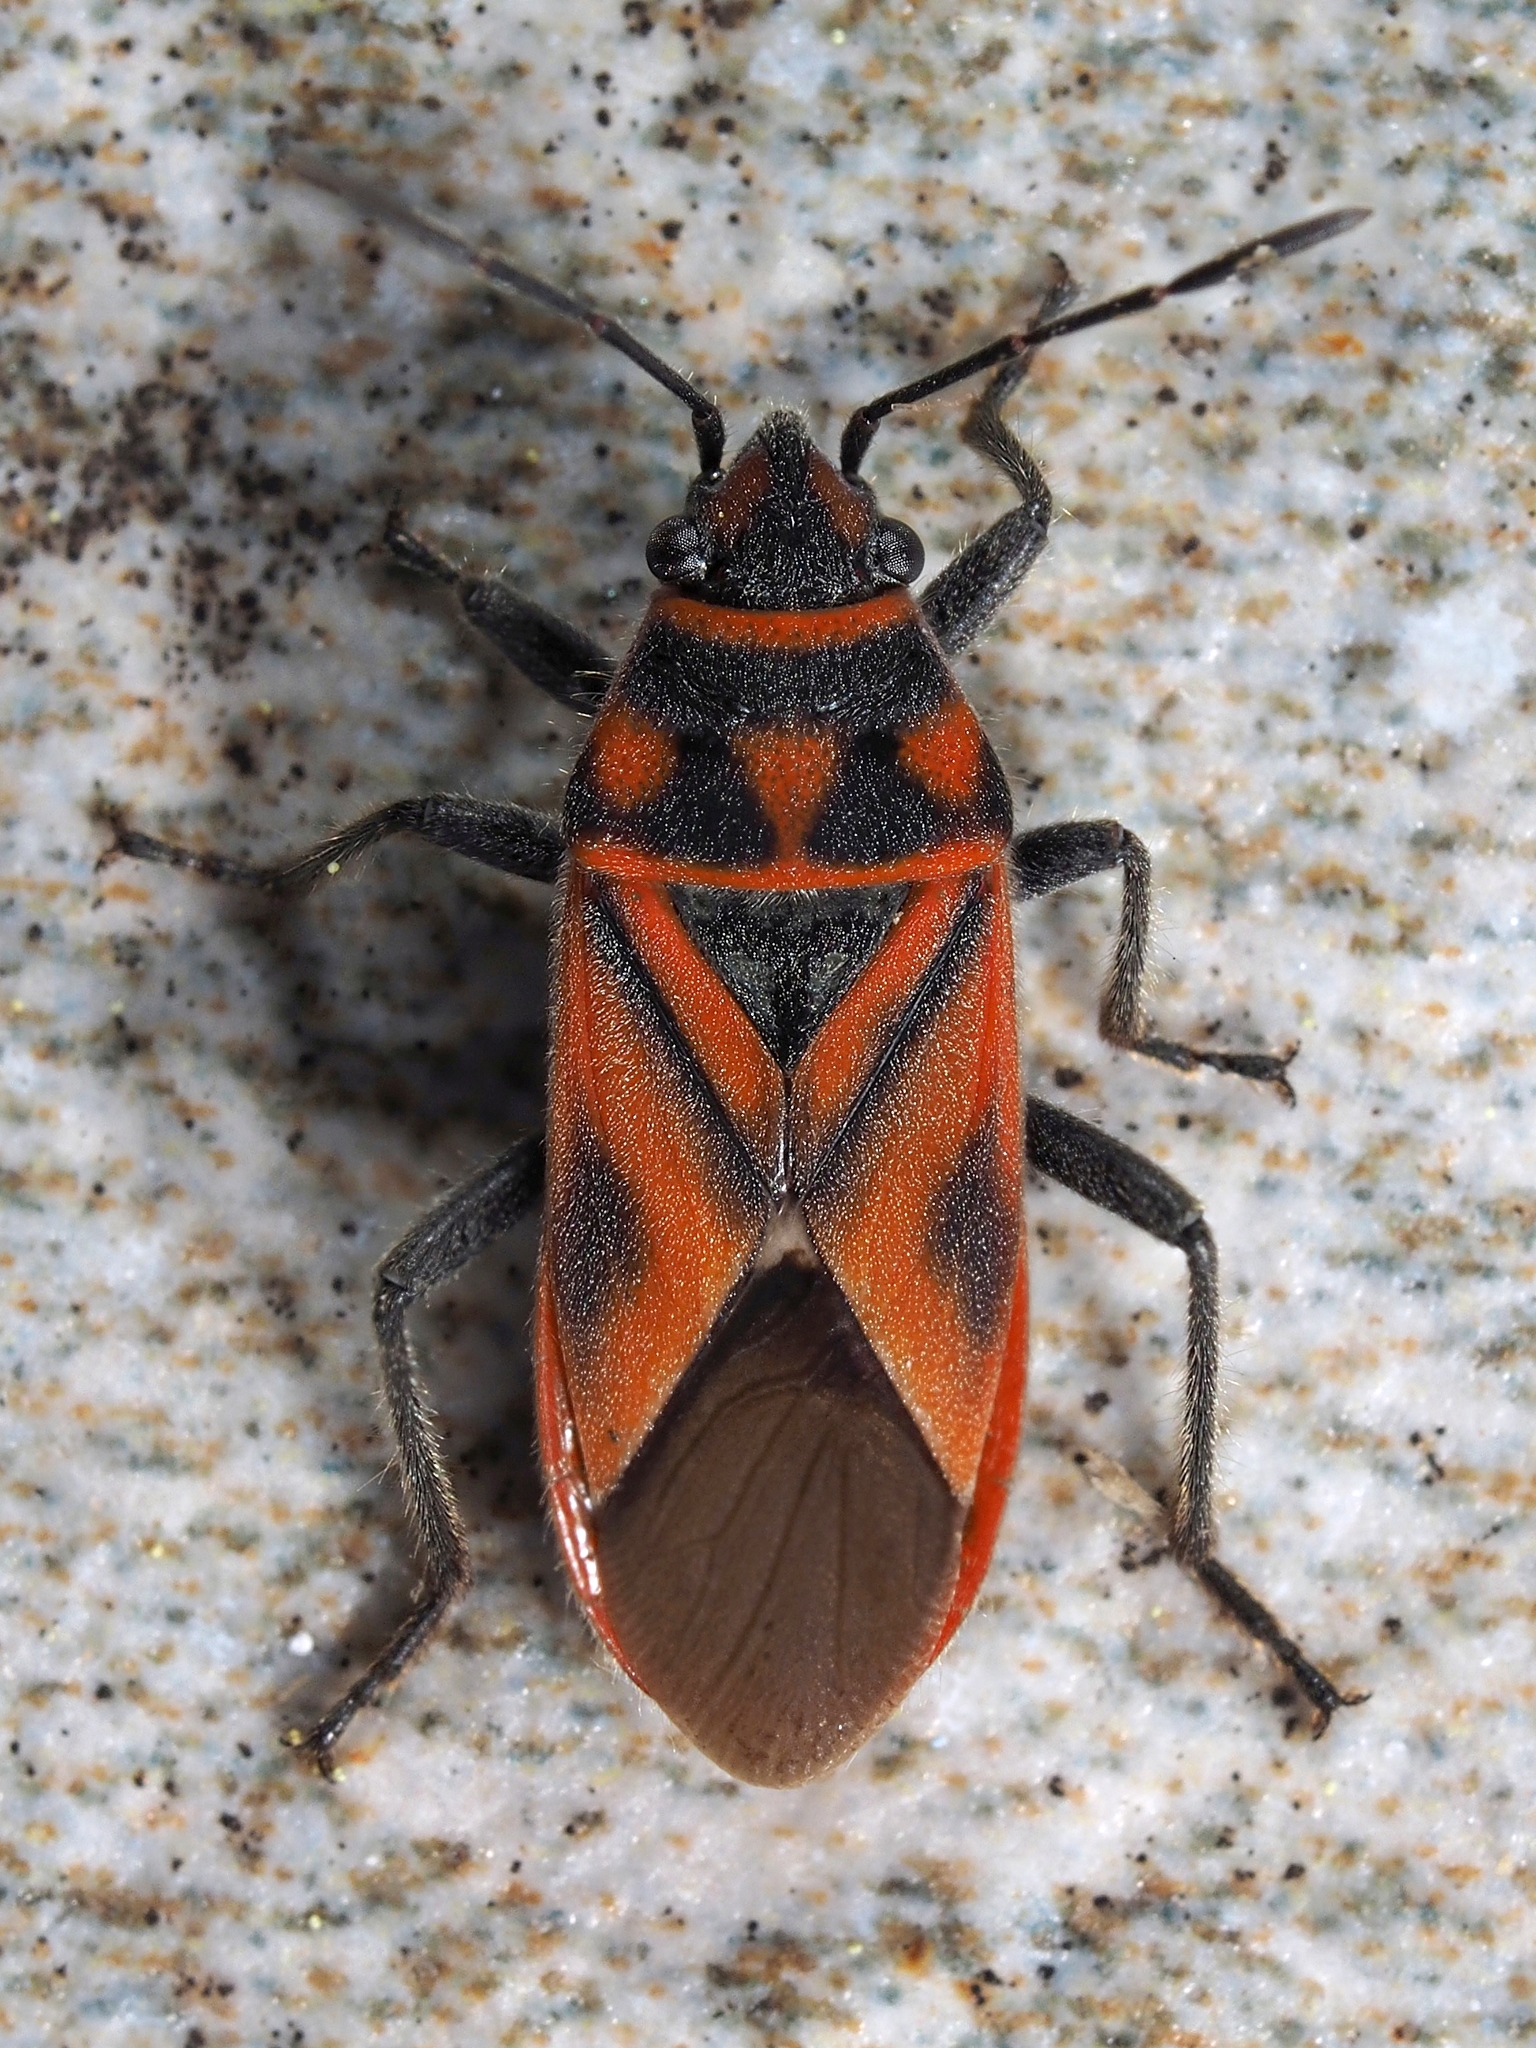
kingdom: Animalia
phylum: Arthropoda
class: Insecta
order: Hemiptera
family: Lygaeidae
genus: Graptostethus
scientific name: Graptostethus servus
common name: Lygaeid bug
